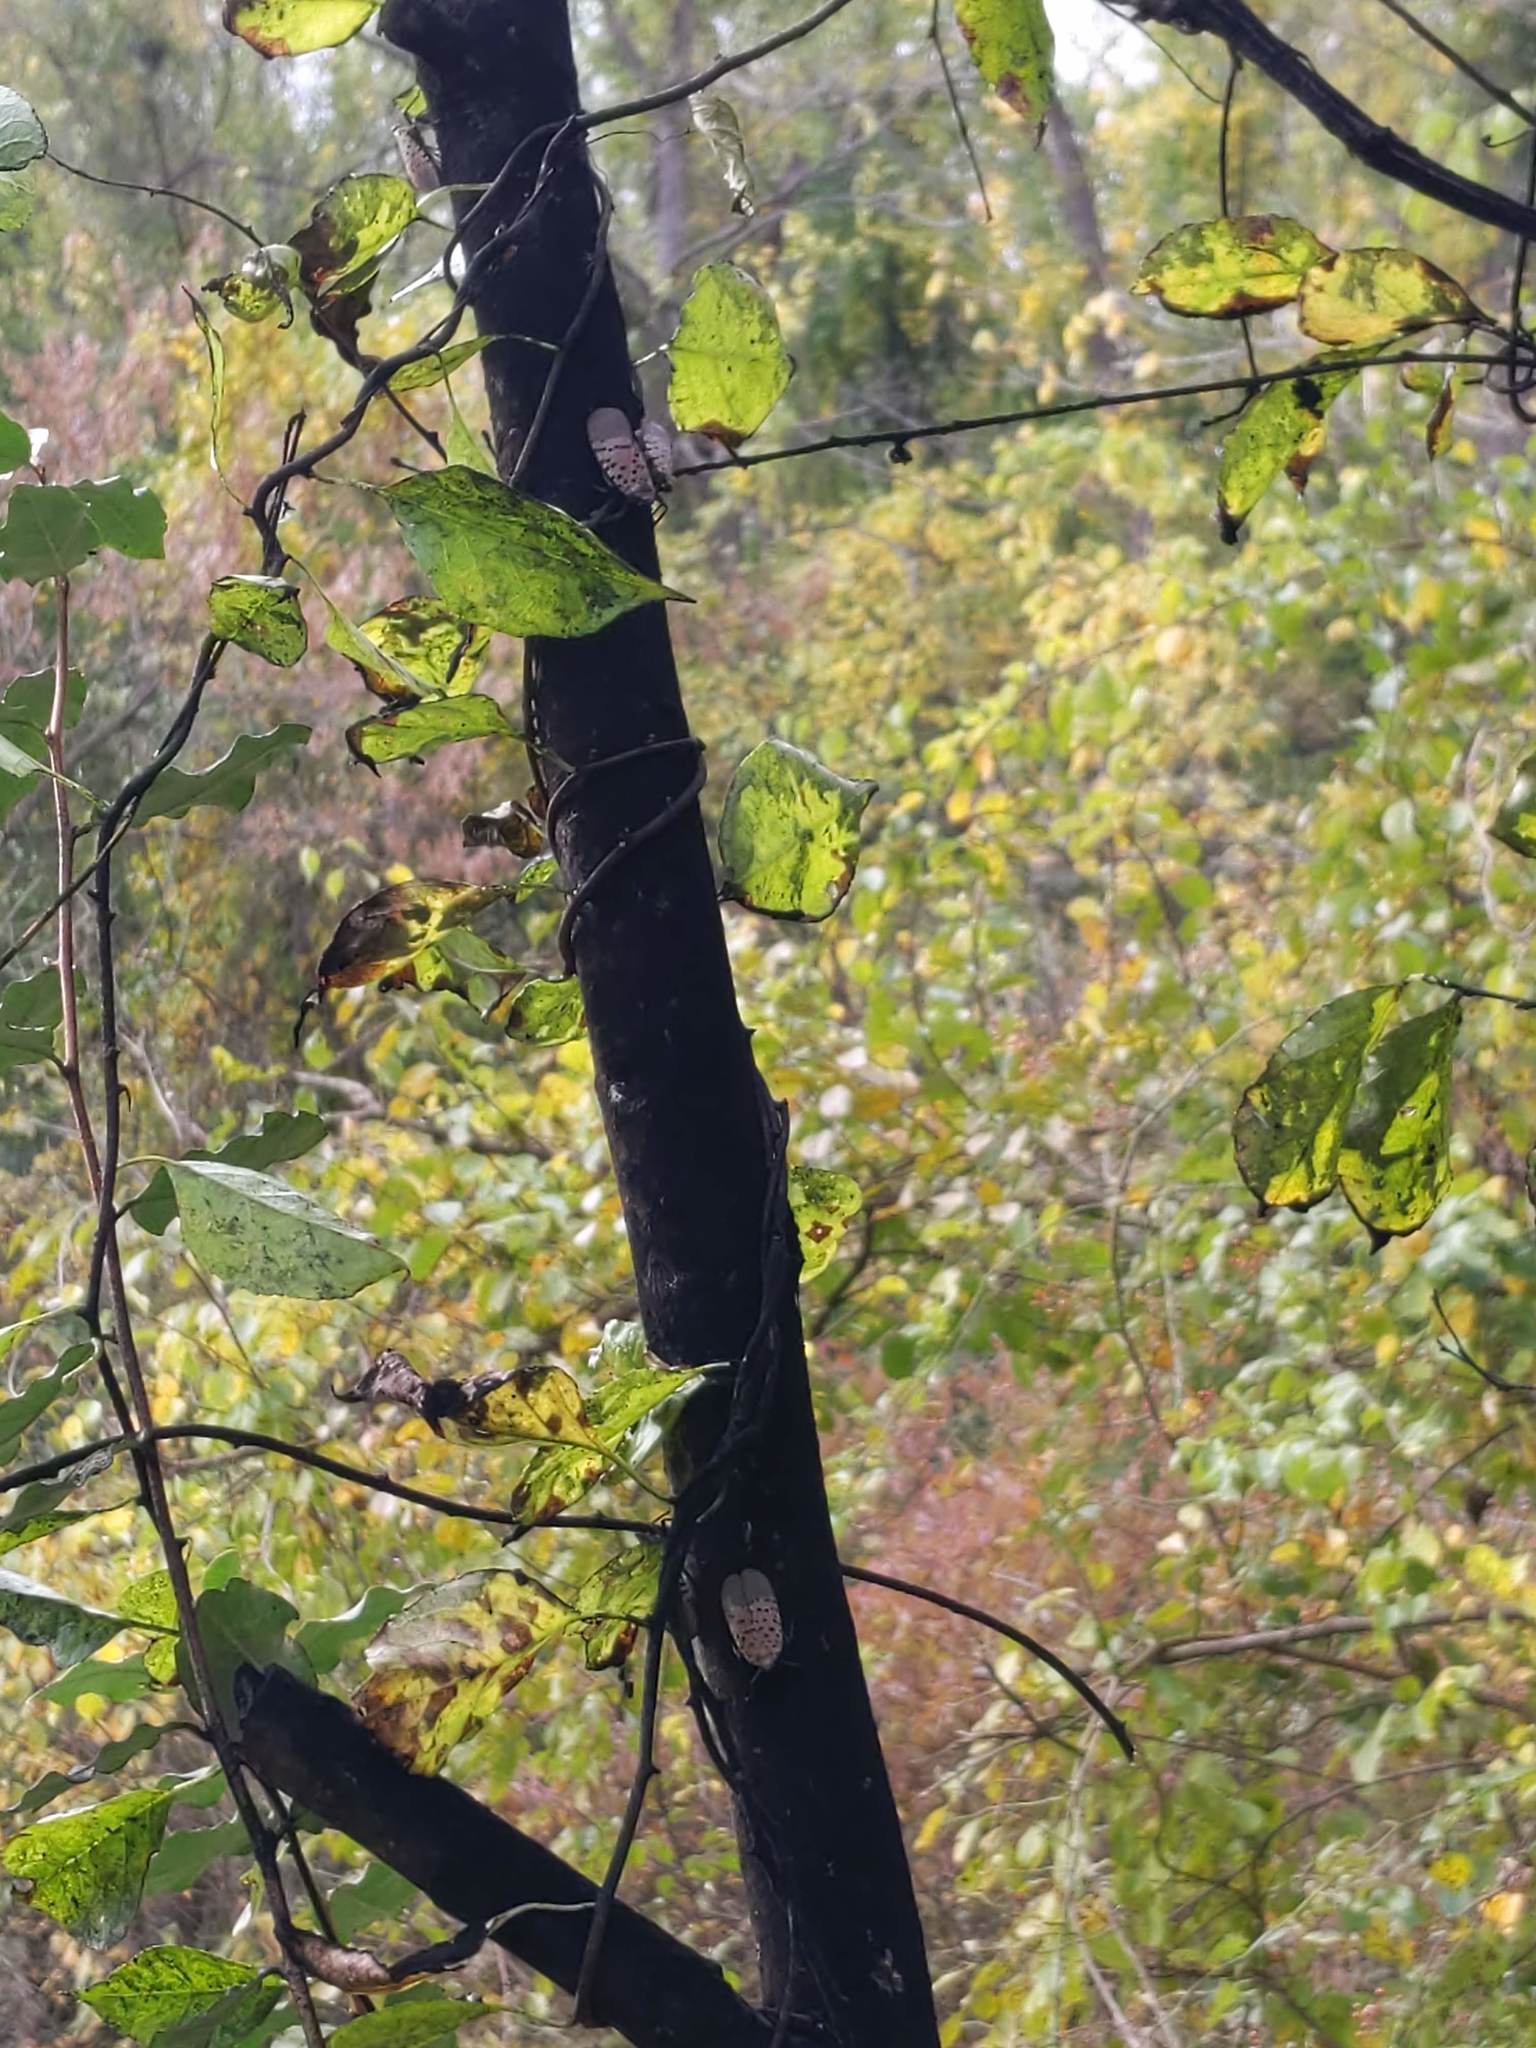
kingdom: Animalia
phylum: Arthropoda
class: Insecta
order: Hemiptera
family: Fulgoridae
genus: Lycorma
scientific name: Lycorma delicatula
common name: Spotted lanternfly
